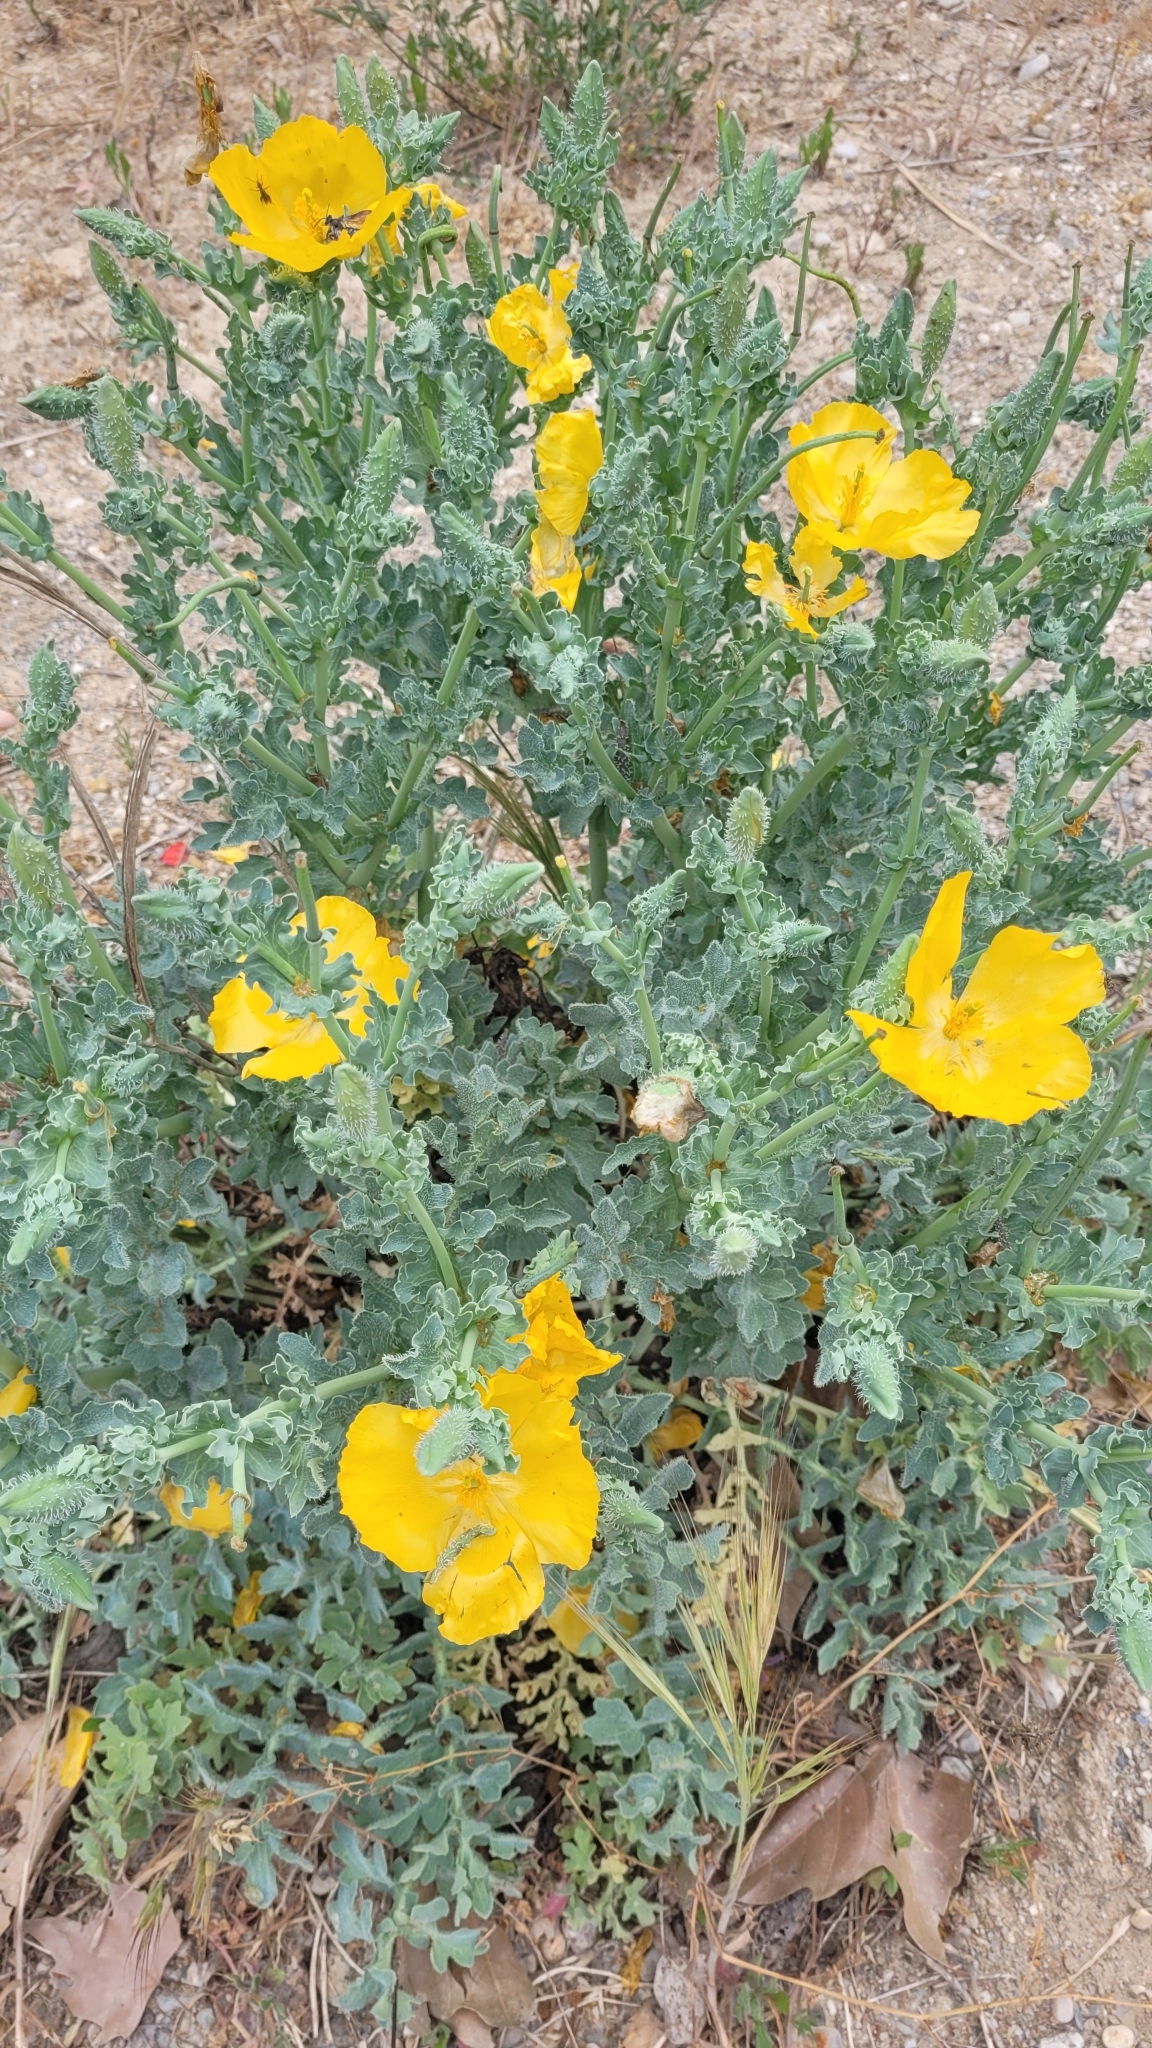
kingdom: Plantae
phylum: Tracheophyta
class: Magnoliopsida
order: Ranunculales
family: Papaveraceae
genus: Glaucium
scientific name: Glaucium flavum
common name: Yellow horned-poppy
